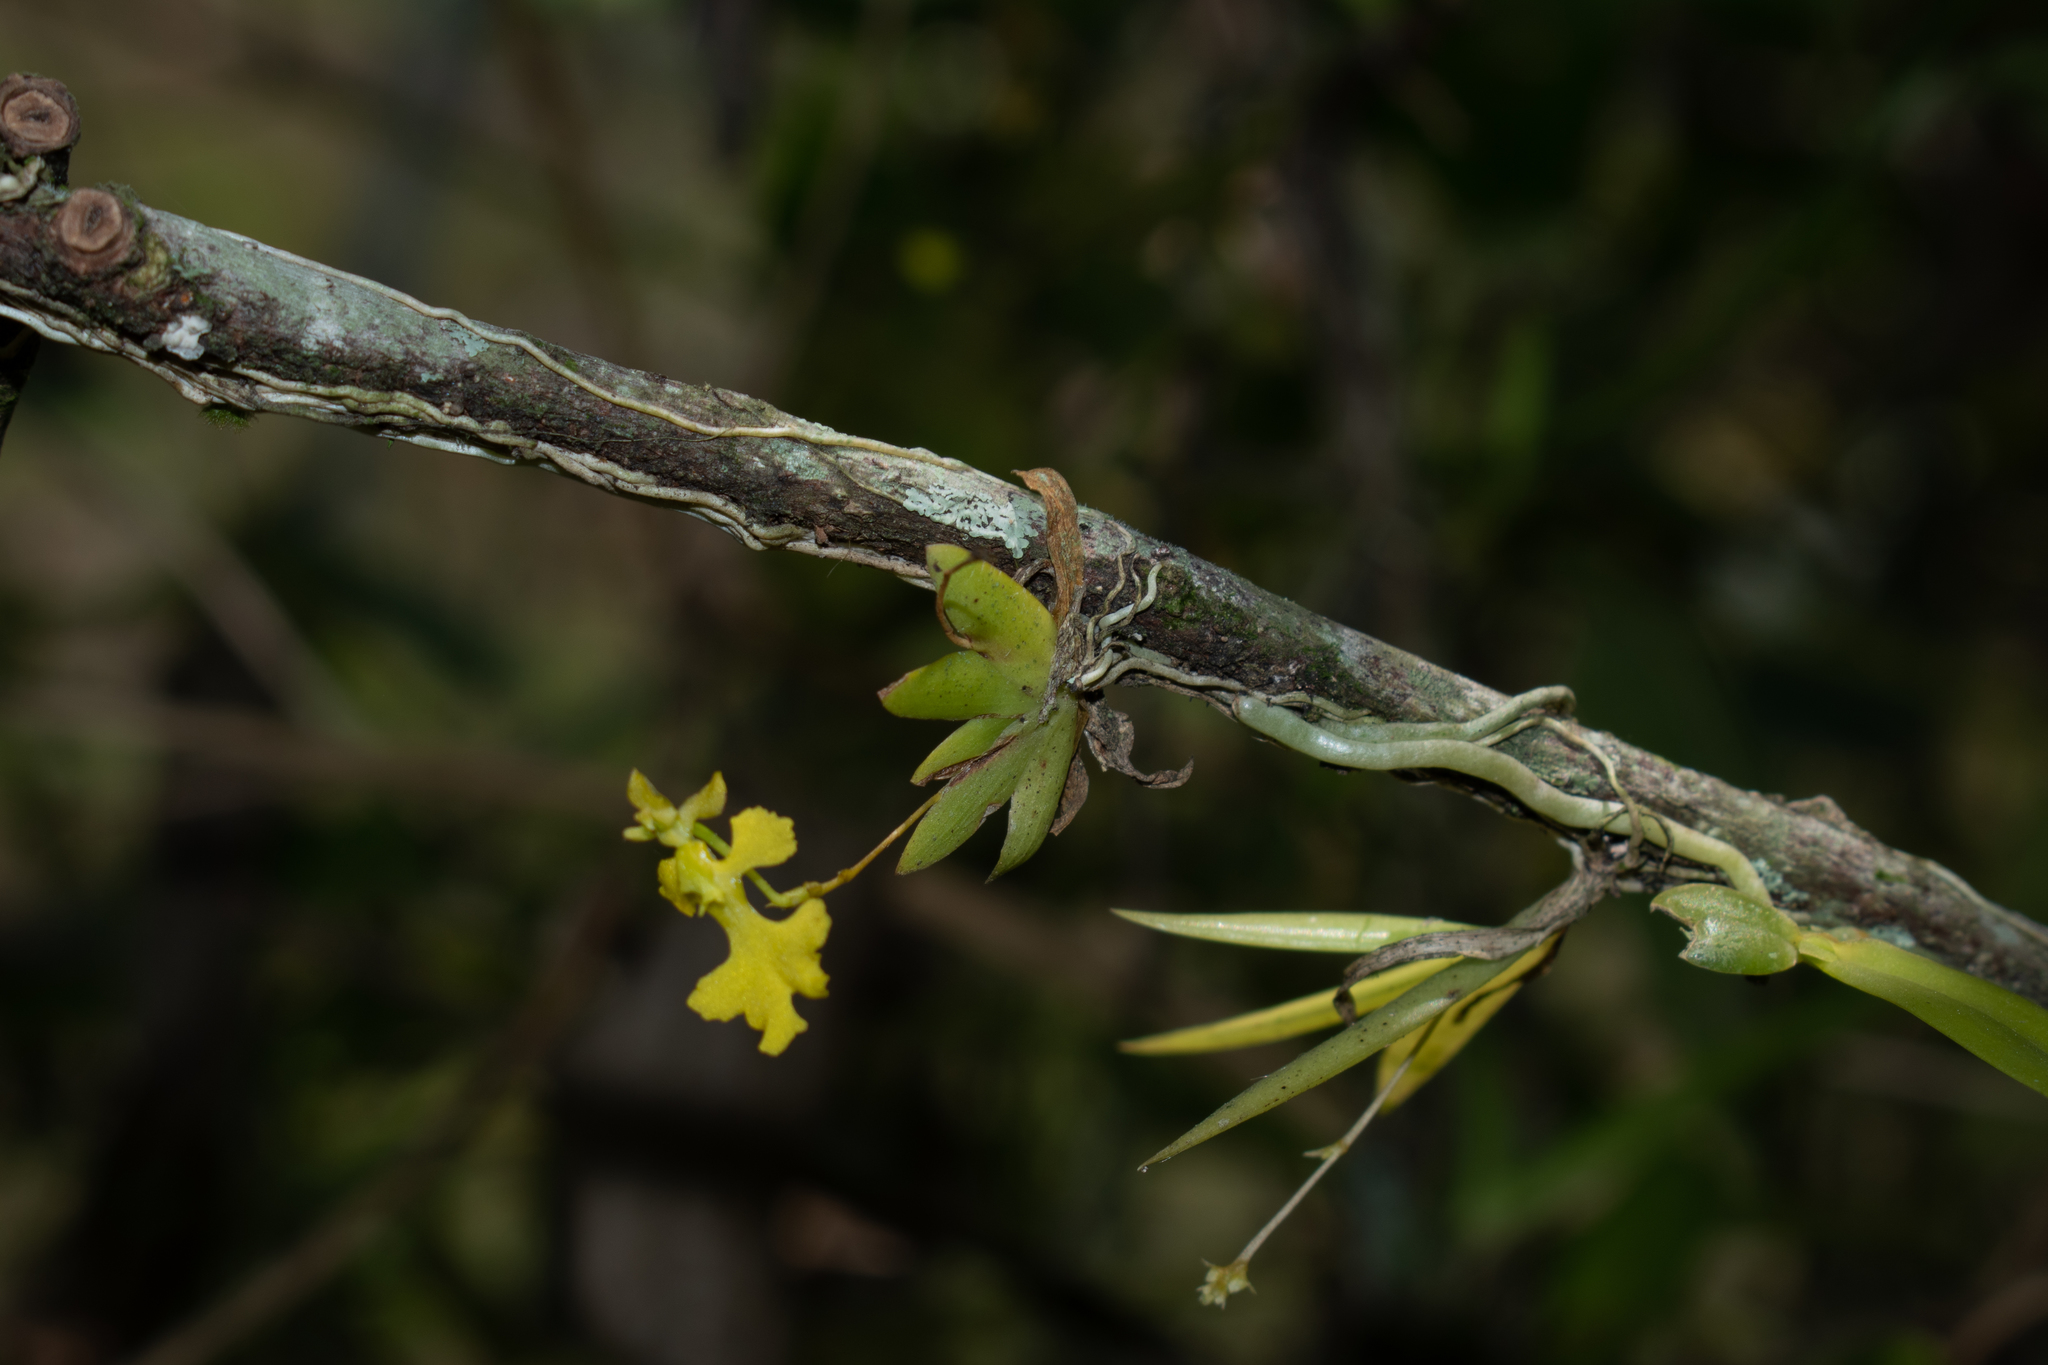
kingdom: Plantae
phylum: Tracheophyta
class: Liliopsida
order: Asparagales
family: Orchidaceae
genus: Erycina
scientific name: Erycina pumilio
